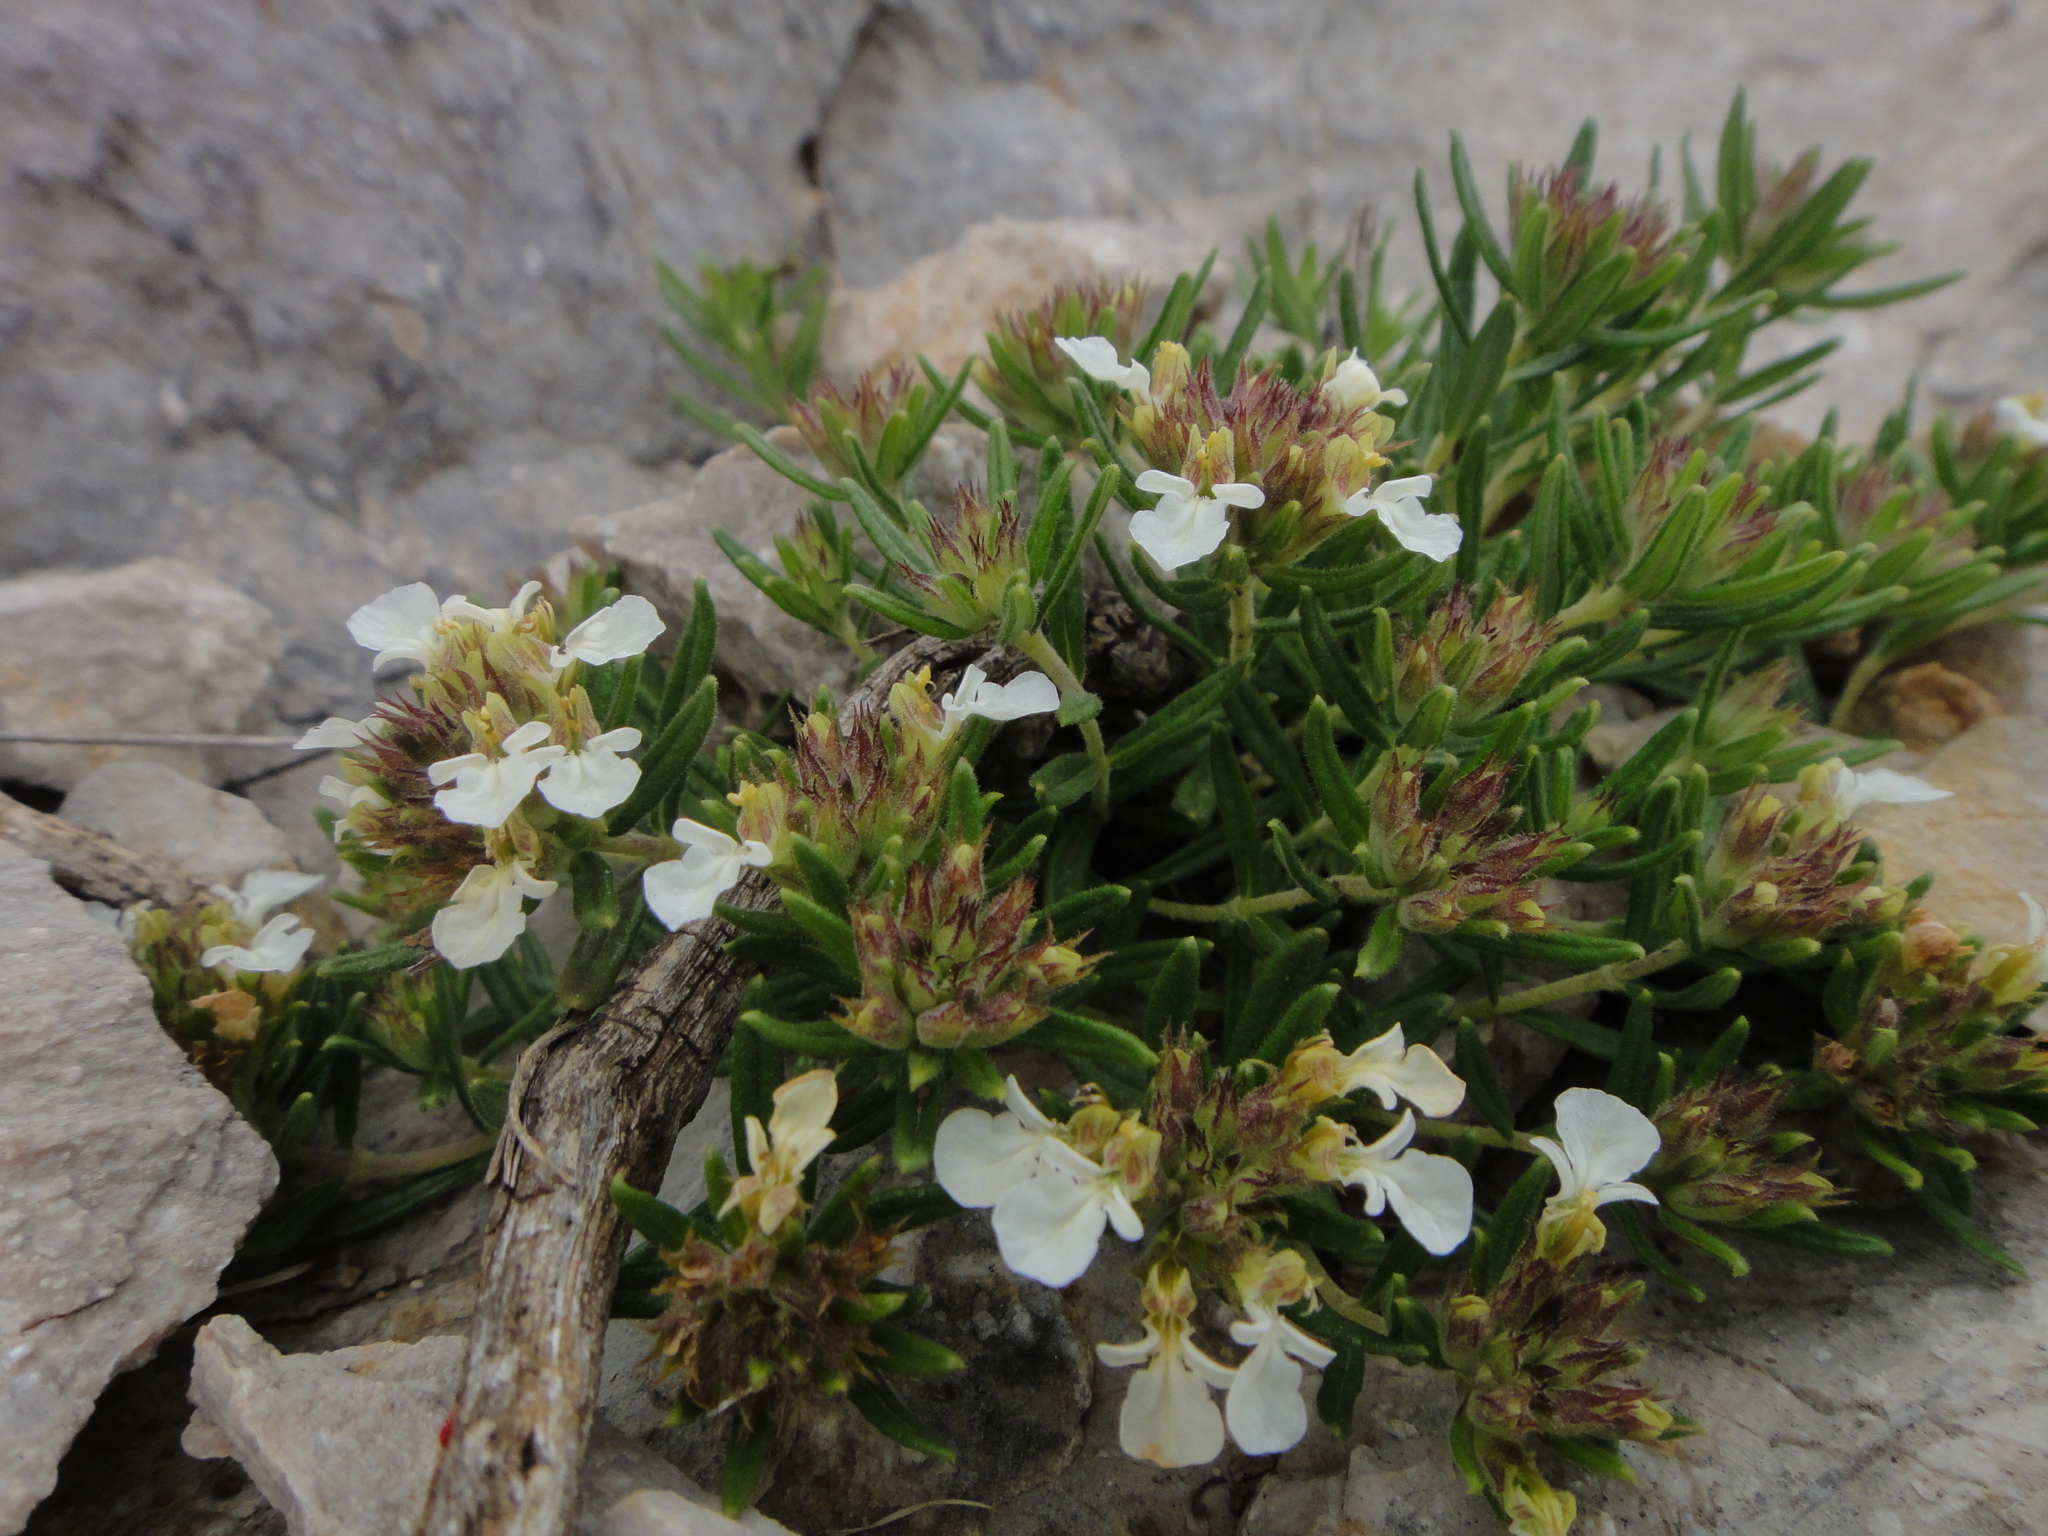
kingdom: Plantae
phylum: Tracheophyta
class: Magnoliopsida
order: Lamiales
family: Lamiaceae
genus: Teucrium
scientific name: Teucrium montanum
